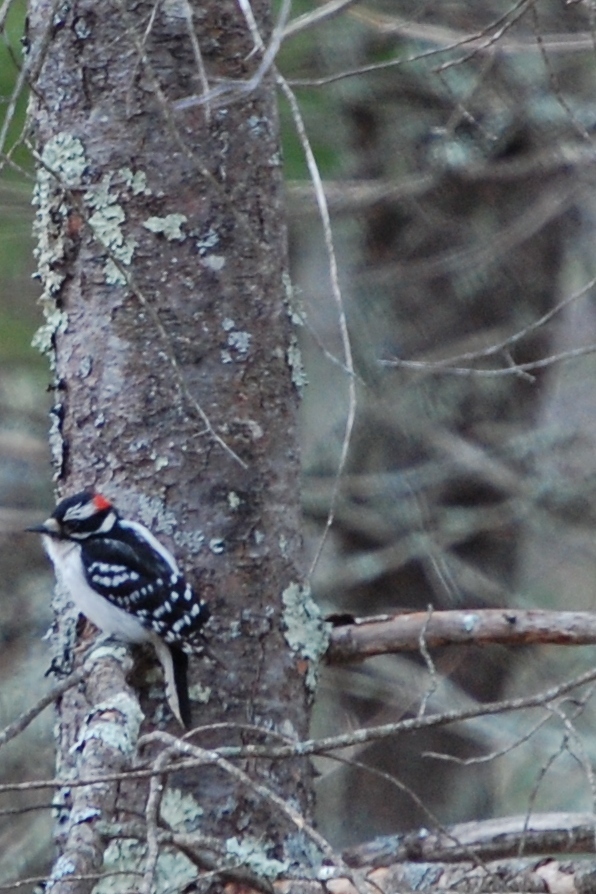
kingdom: Animalia
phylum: Chordata
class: Aves
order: Piciformes
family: Picidae
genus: Dryobates
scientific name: Dryobates pubescens
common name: Downy woodpecker
